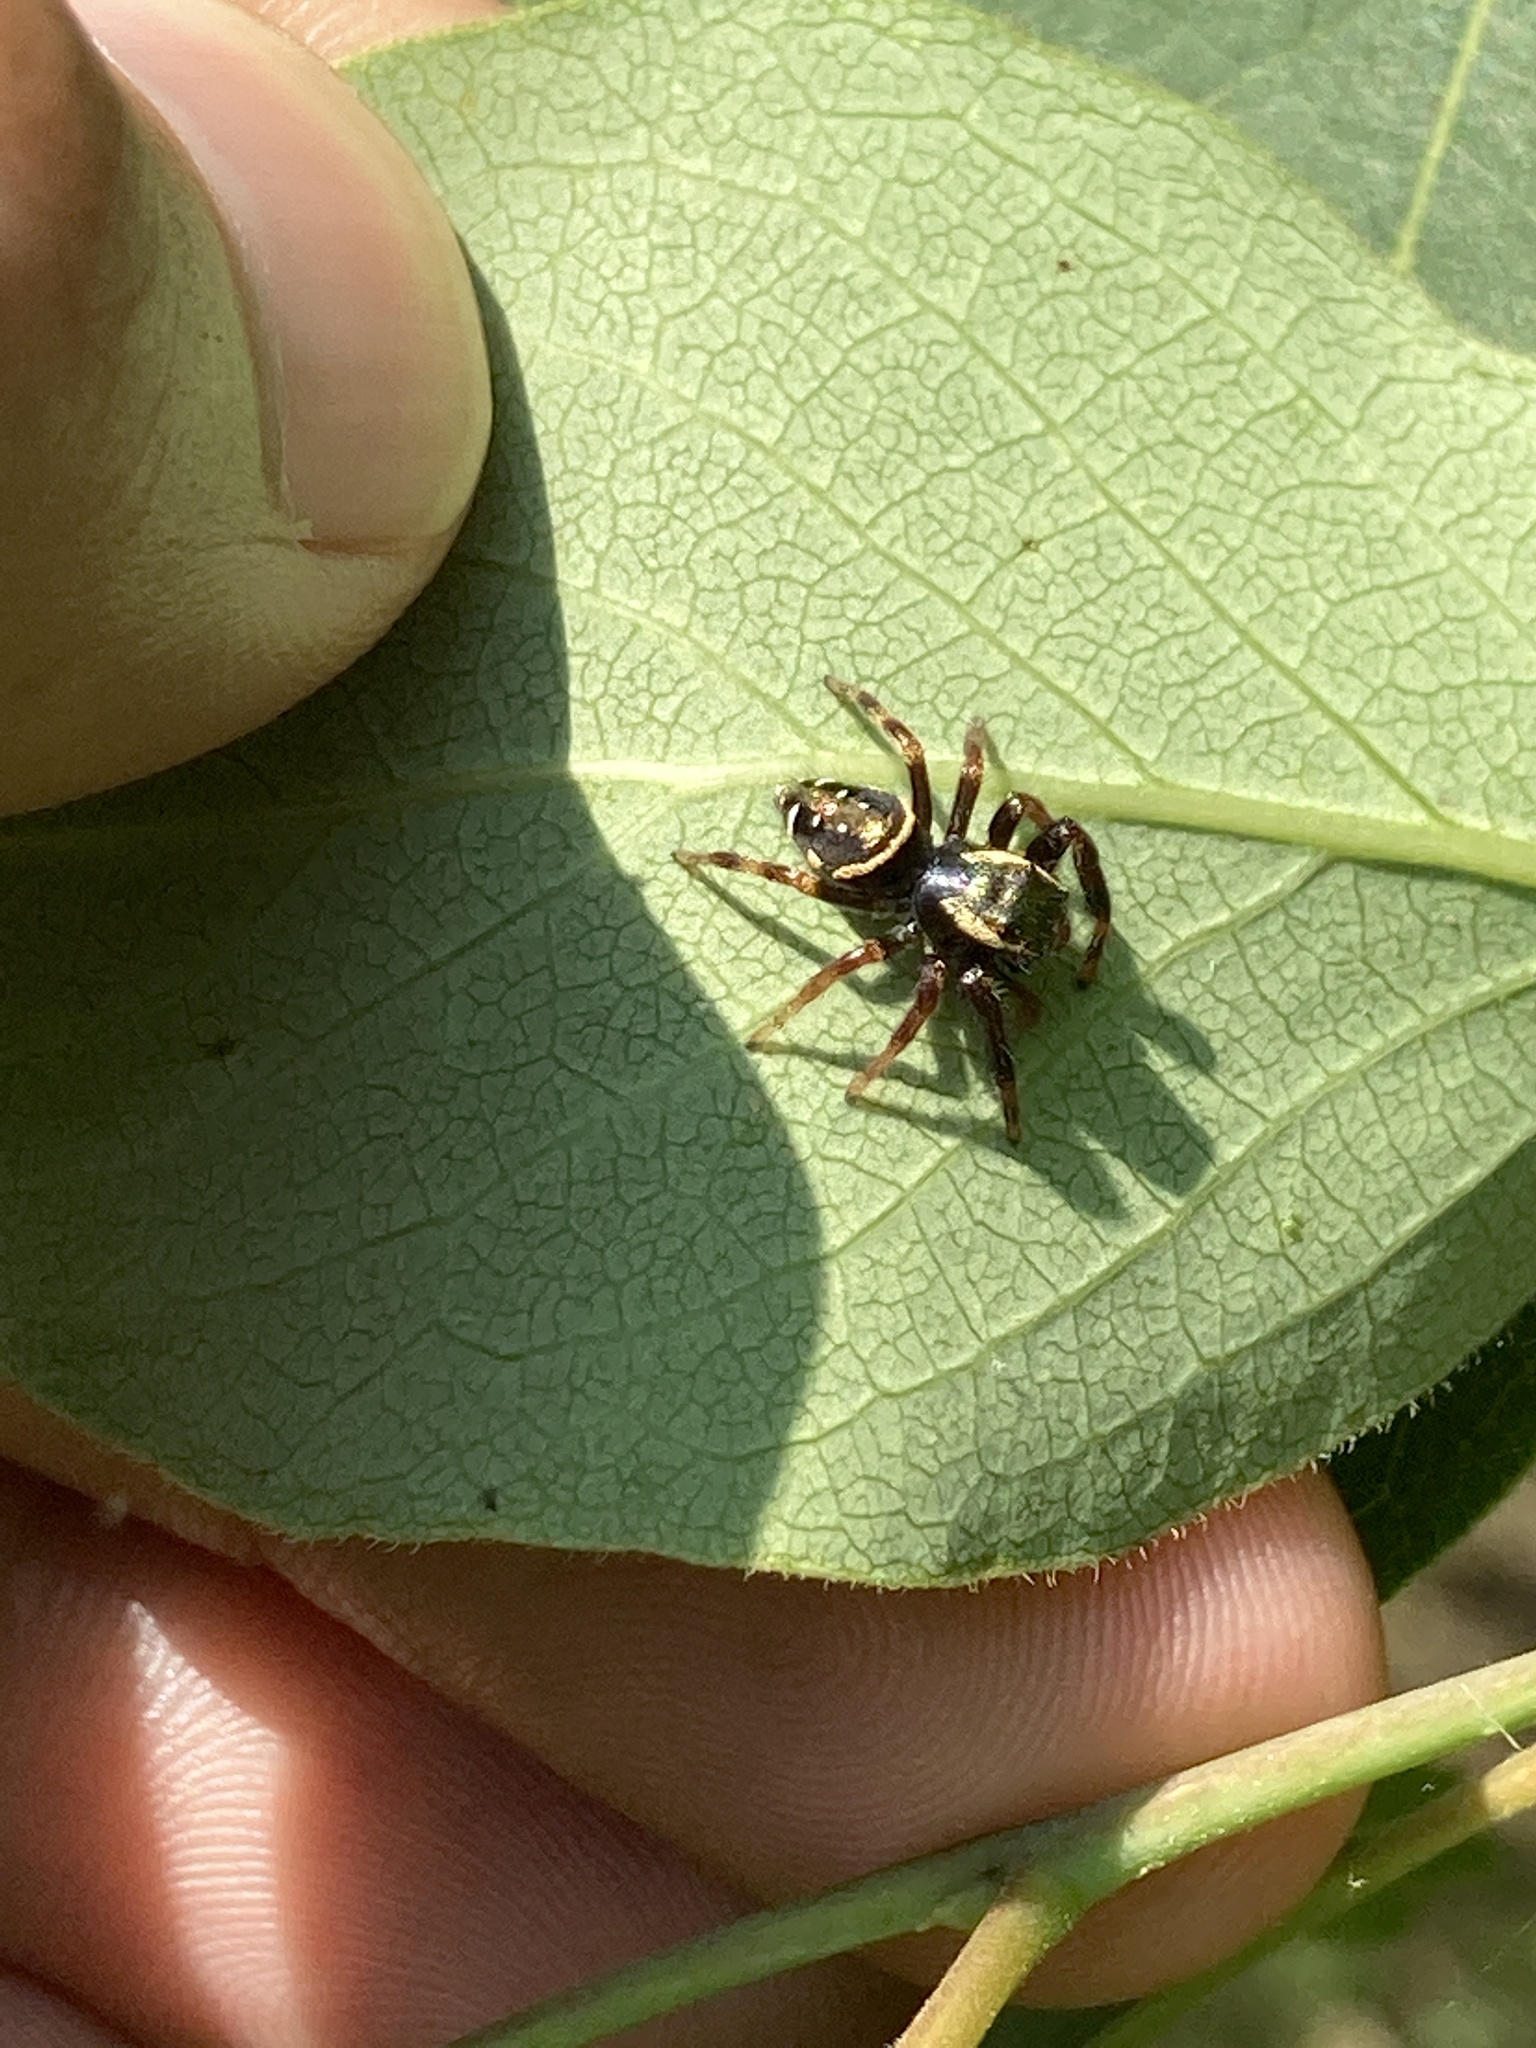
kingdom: Animalia
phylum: Arthropoda
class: Arachnida
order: Araneae
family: Salticidae
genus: Paraphidippus
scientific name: Paraphidippus aurantius
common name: Jumping spiders
